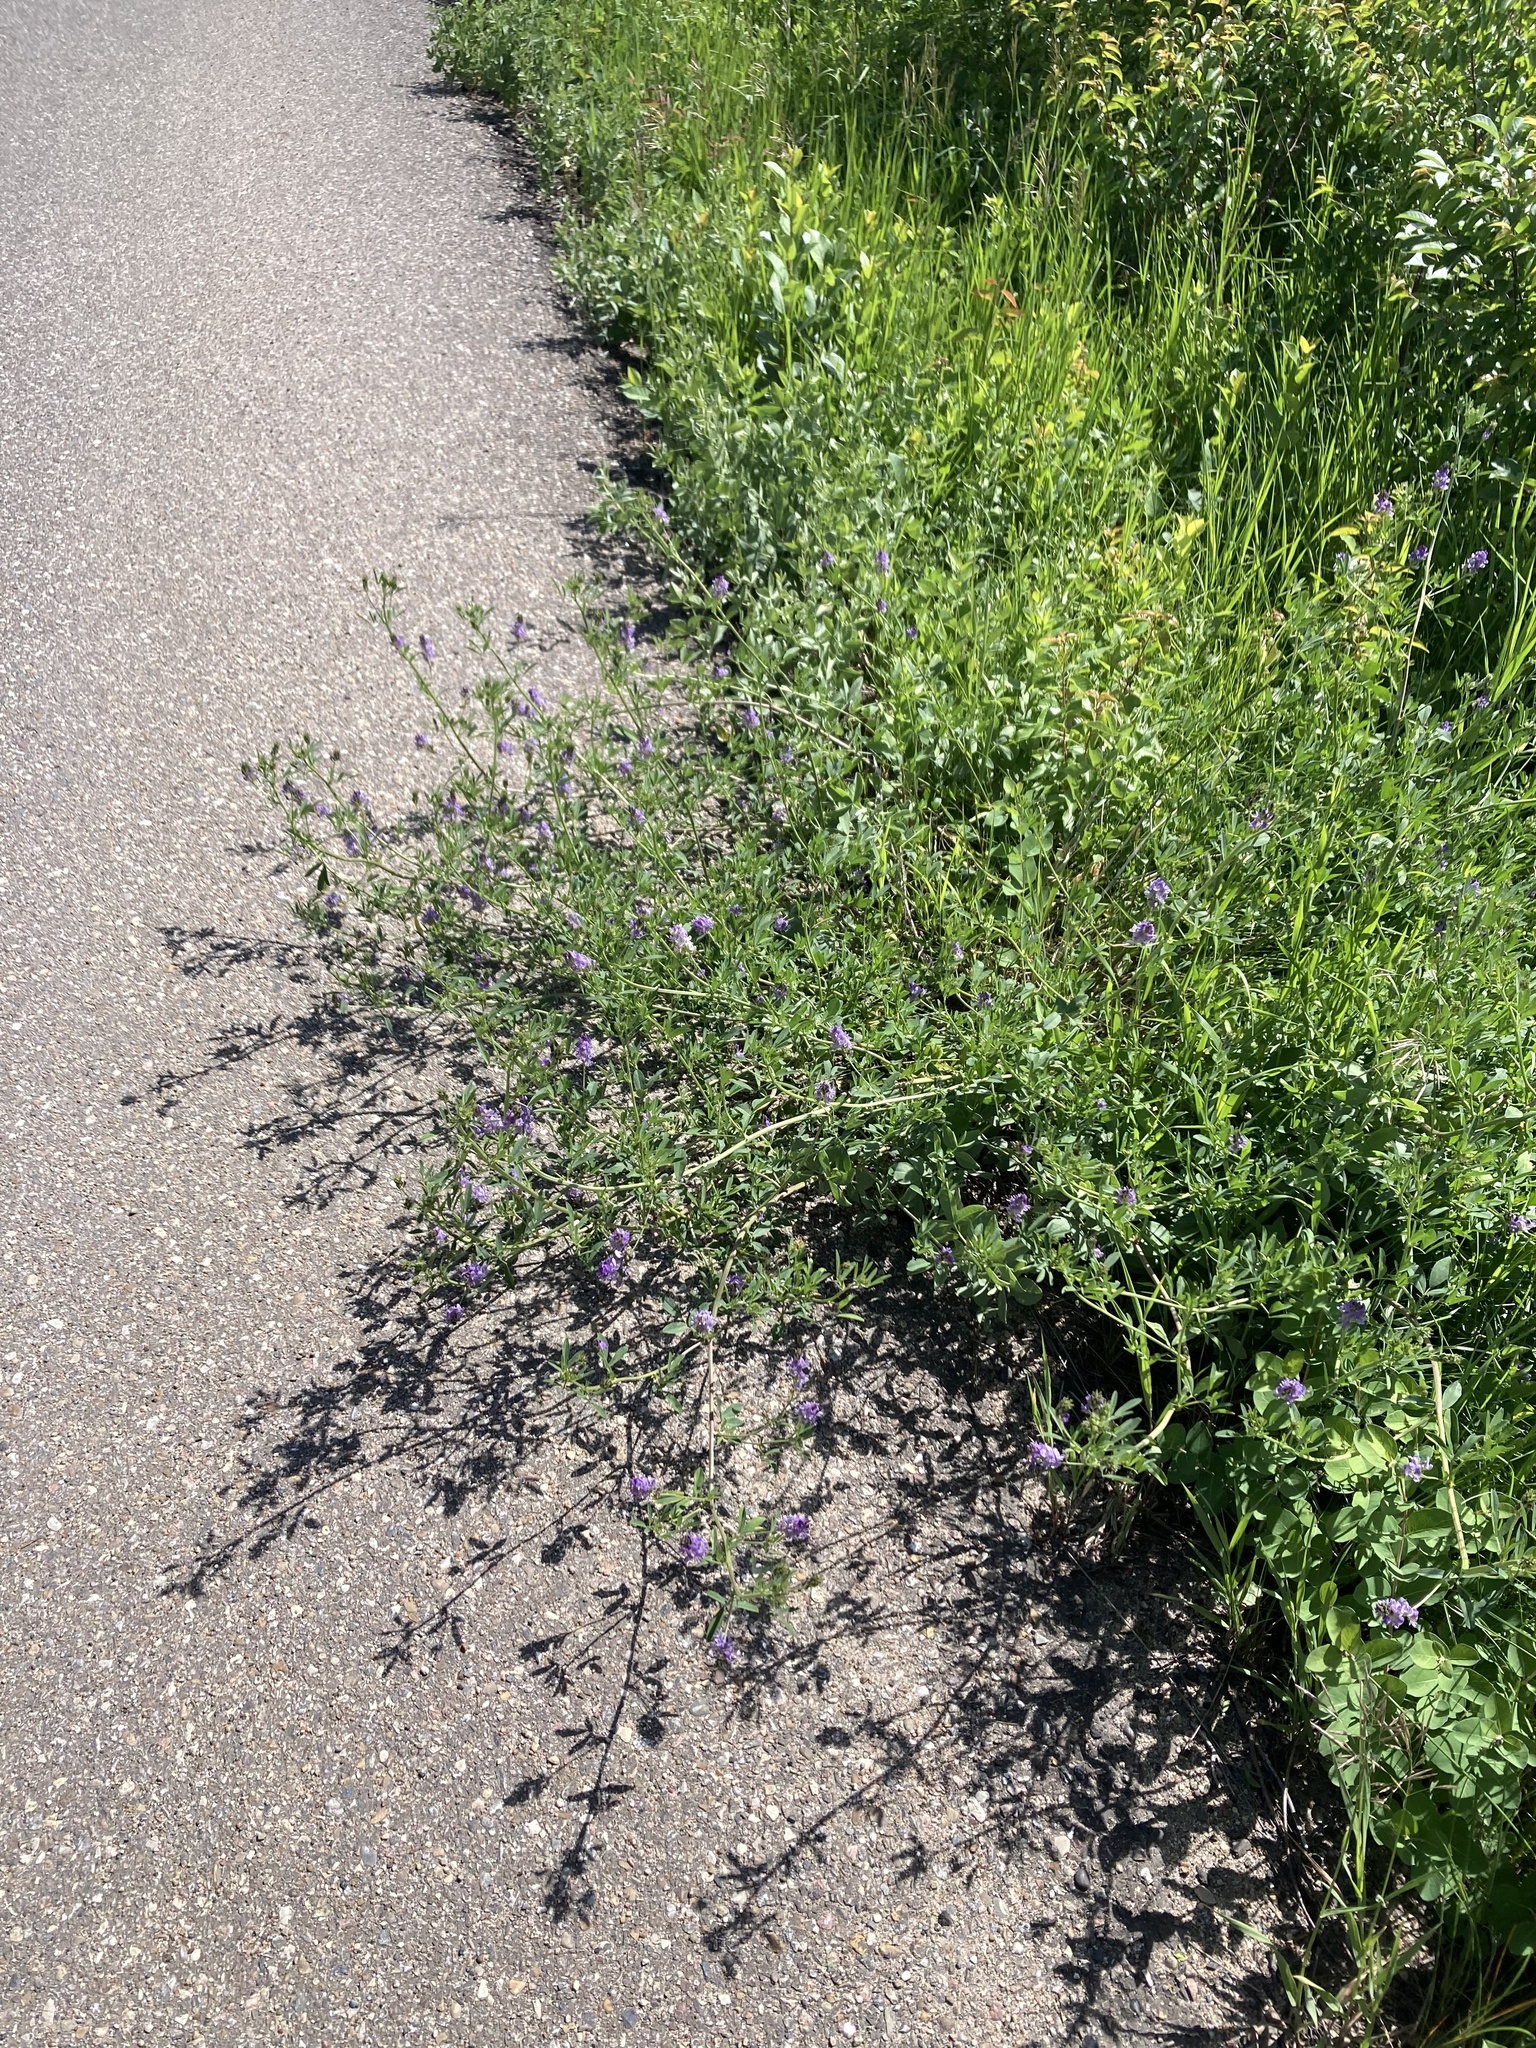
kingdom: Plantae
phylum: Tracheophyta
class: Magnoliopsida
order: Fabales
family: Fabaceae
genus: Medicago
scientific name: Medicago sativa
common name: Alfalfa
